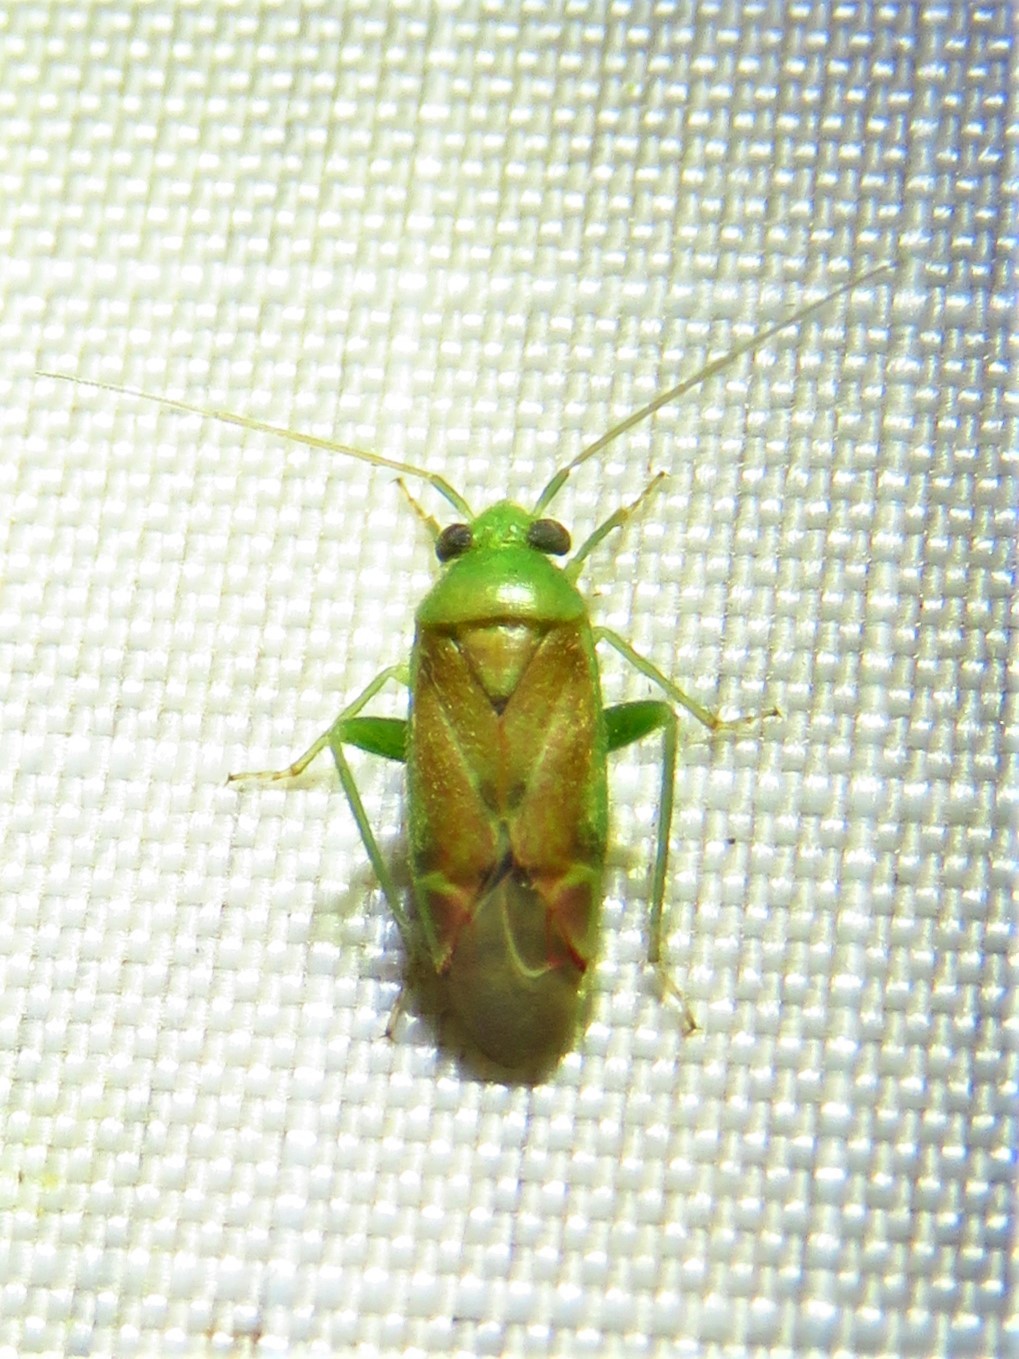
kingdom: Animalia
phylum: Arthropoda
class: Insecta
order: Hemiptera
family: Miridae
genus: Dichrooscytus
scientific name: Dichrooscytus
